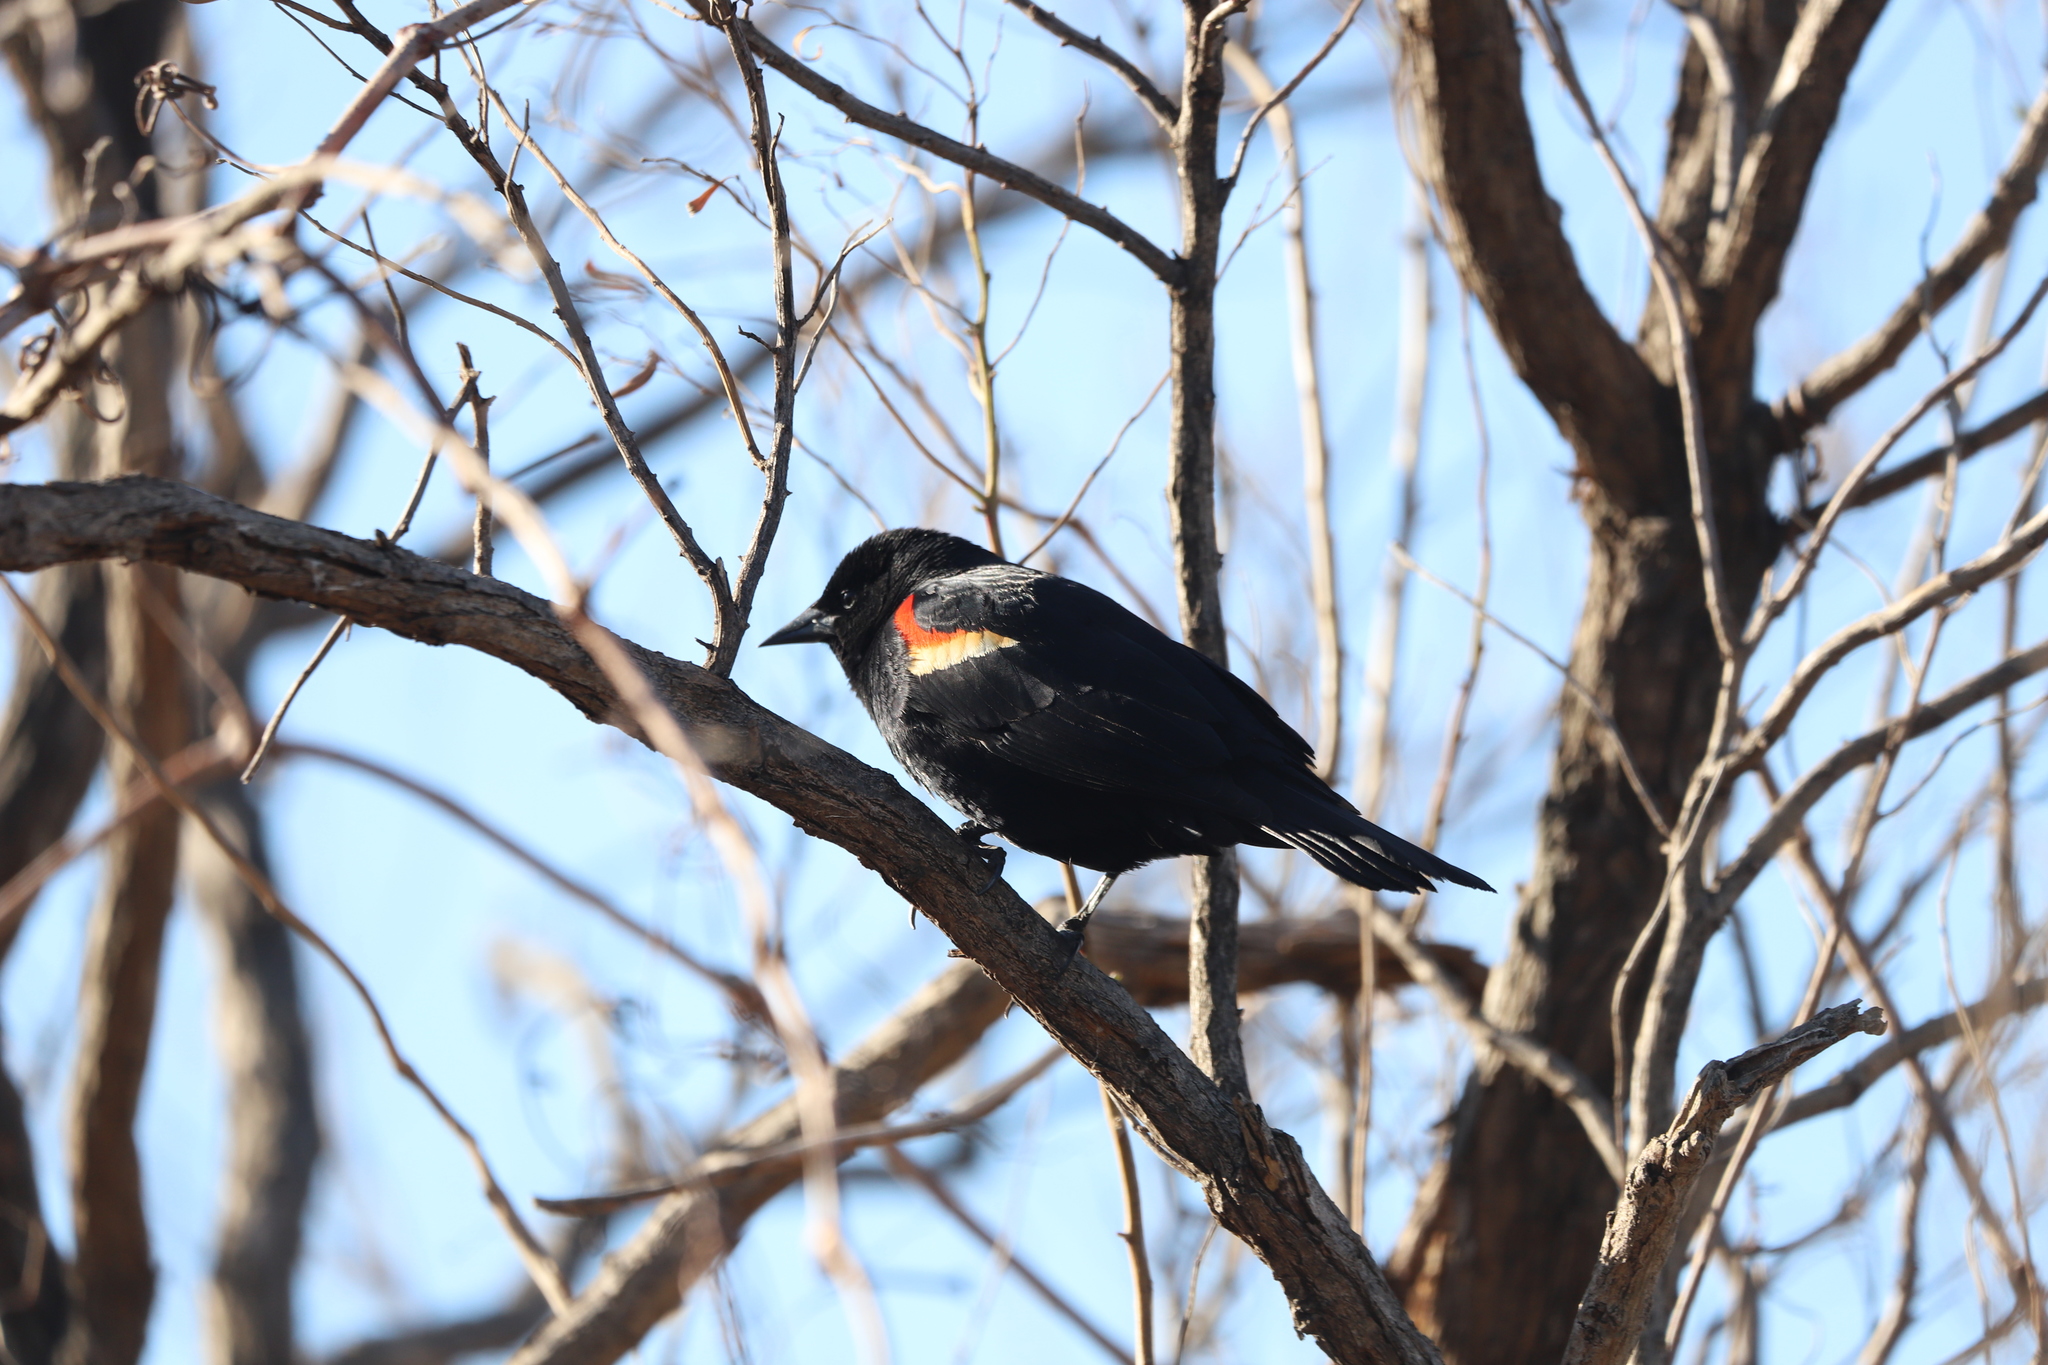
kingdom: Animalia
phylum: Chordata
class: Aves
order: Passeriformes
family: Icteridae
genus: Agelaius
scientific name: Agelaius phoeniceus
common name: Red-winged blackbird
